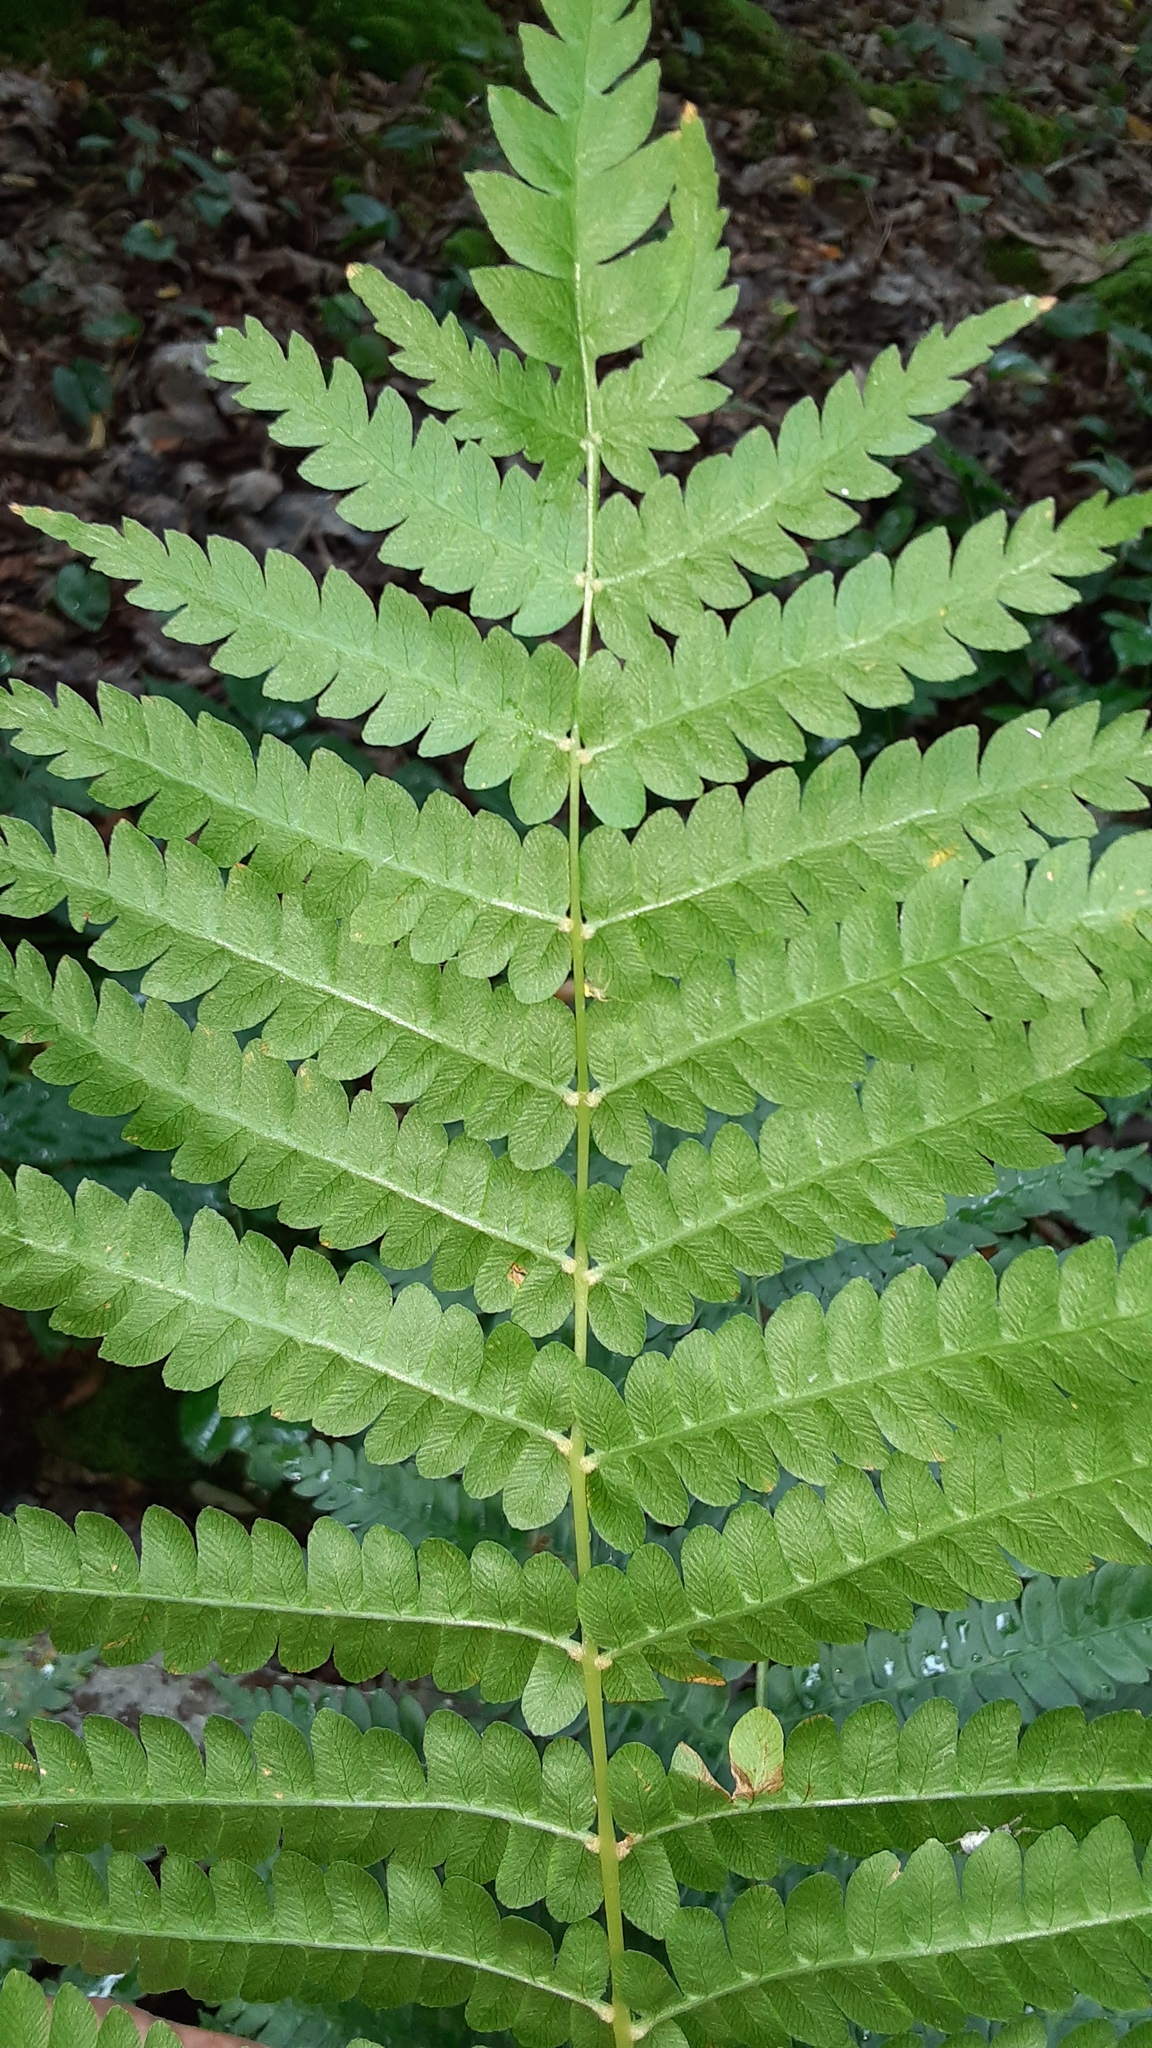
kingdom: Plantae
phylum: Tracheophyta
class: Polypodiopsida
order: Osmundales
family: Osmundaceae
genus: Osmundastrum
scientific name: Osmundastrum cinnamomeum
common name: Cinnamon fern
